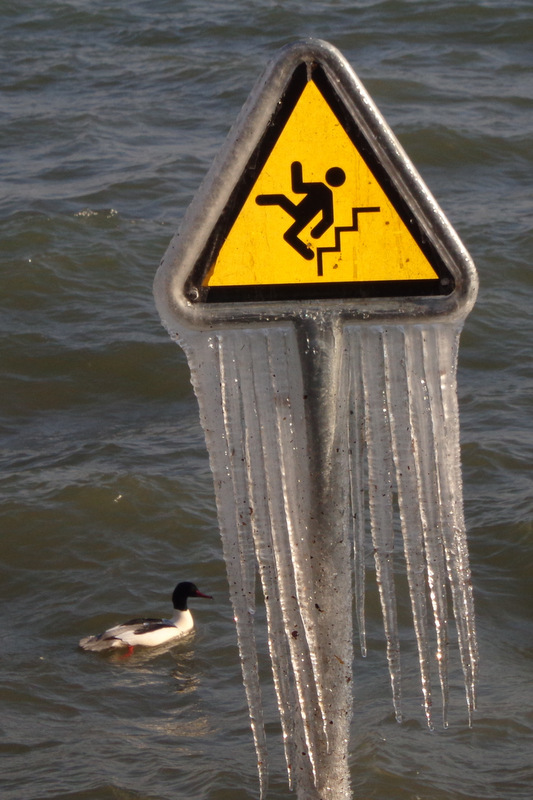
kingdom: Animalia
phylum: Chordata
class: Aves
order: Anseriformes
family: Anatidae
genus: Mergus
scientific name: Mergus merganser
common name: Common merganser
